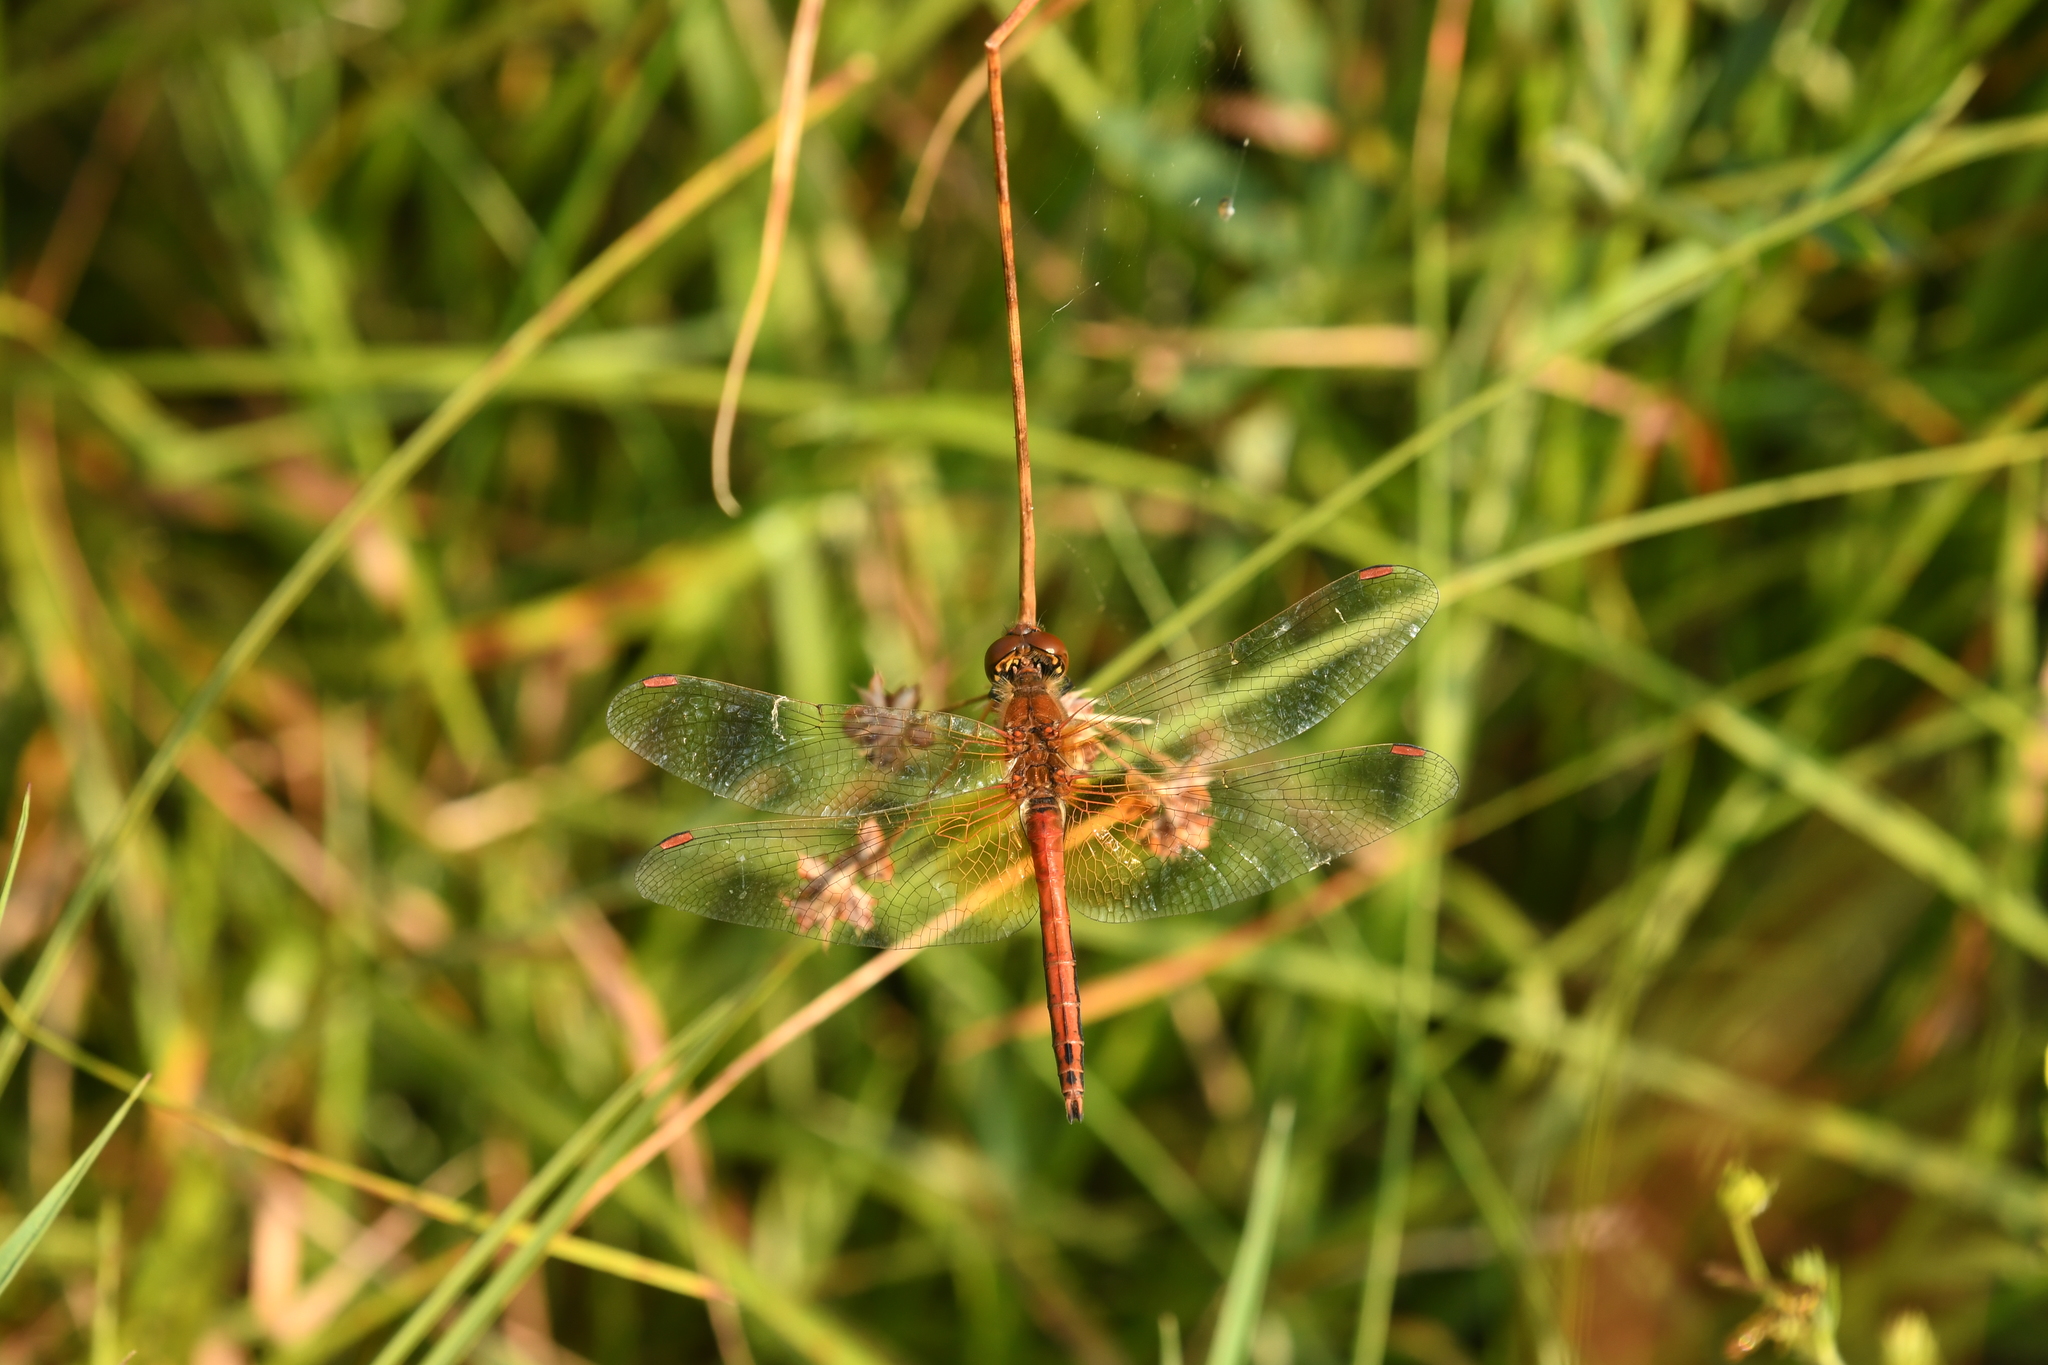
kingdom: Animalia
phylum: Arthropoda
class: Insecta
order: Odonata
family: Libellulidae
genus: Sympetrum
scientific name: Sympetrum flaveolum
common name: Yellow-winged darter
